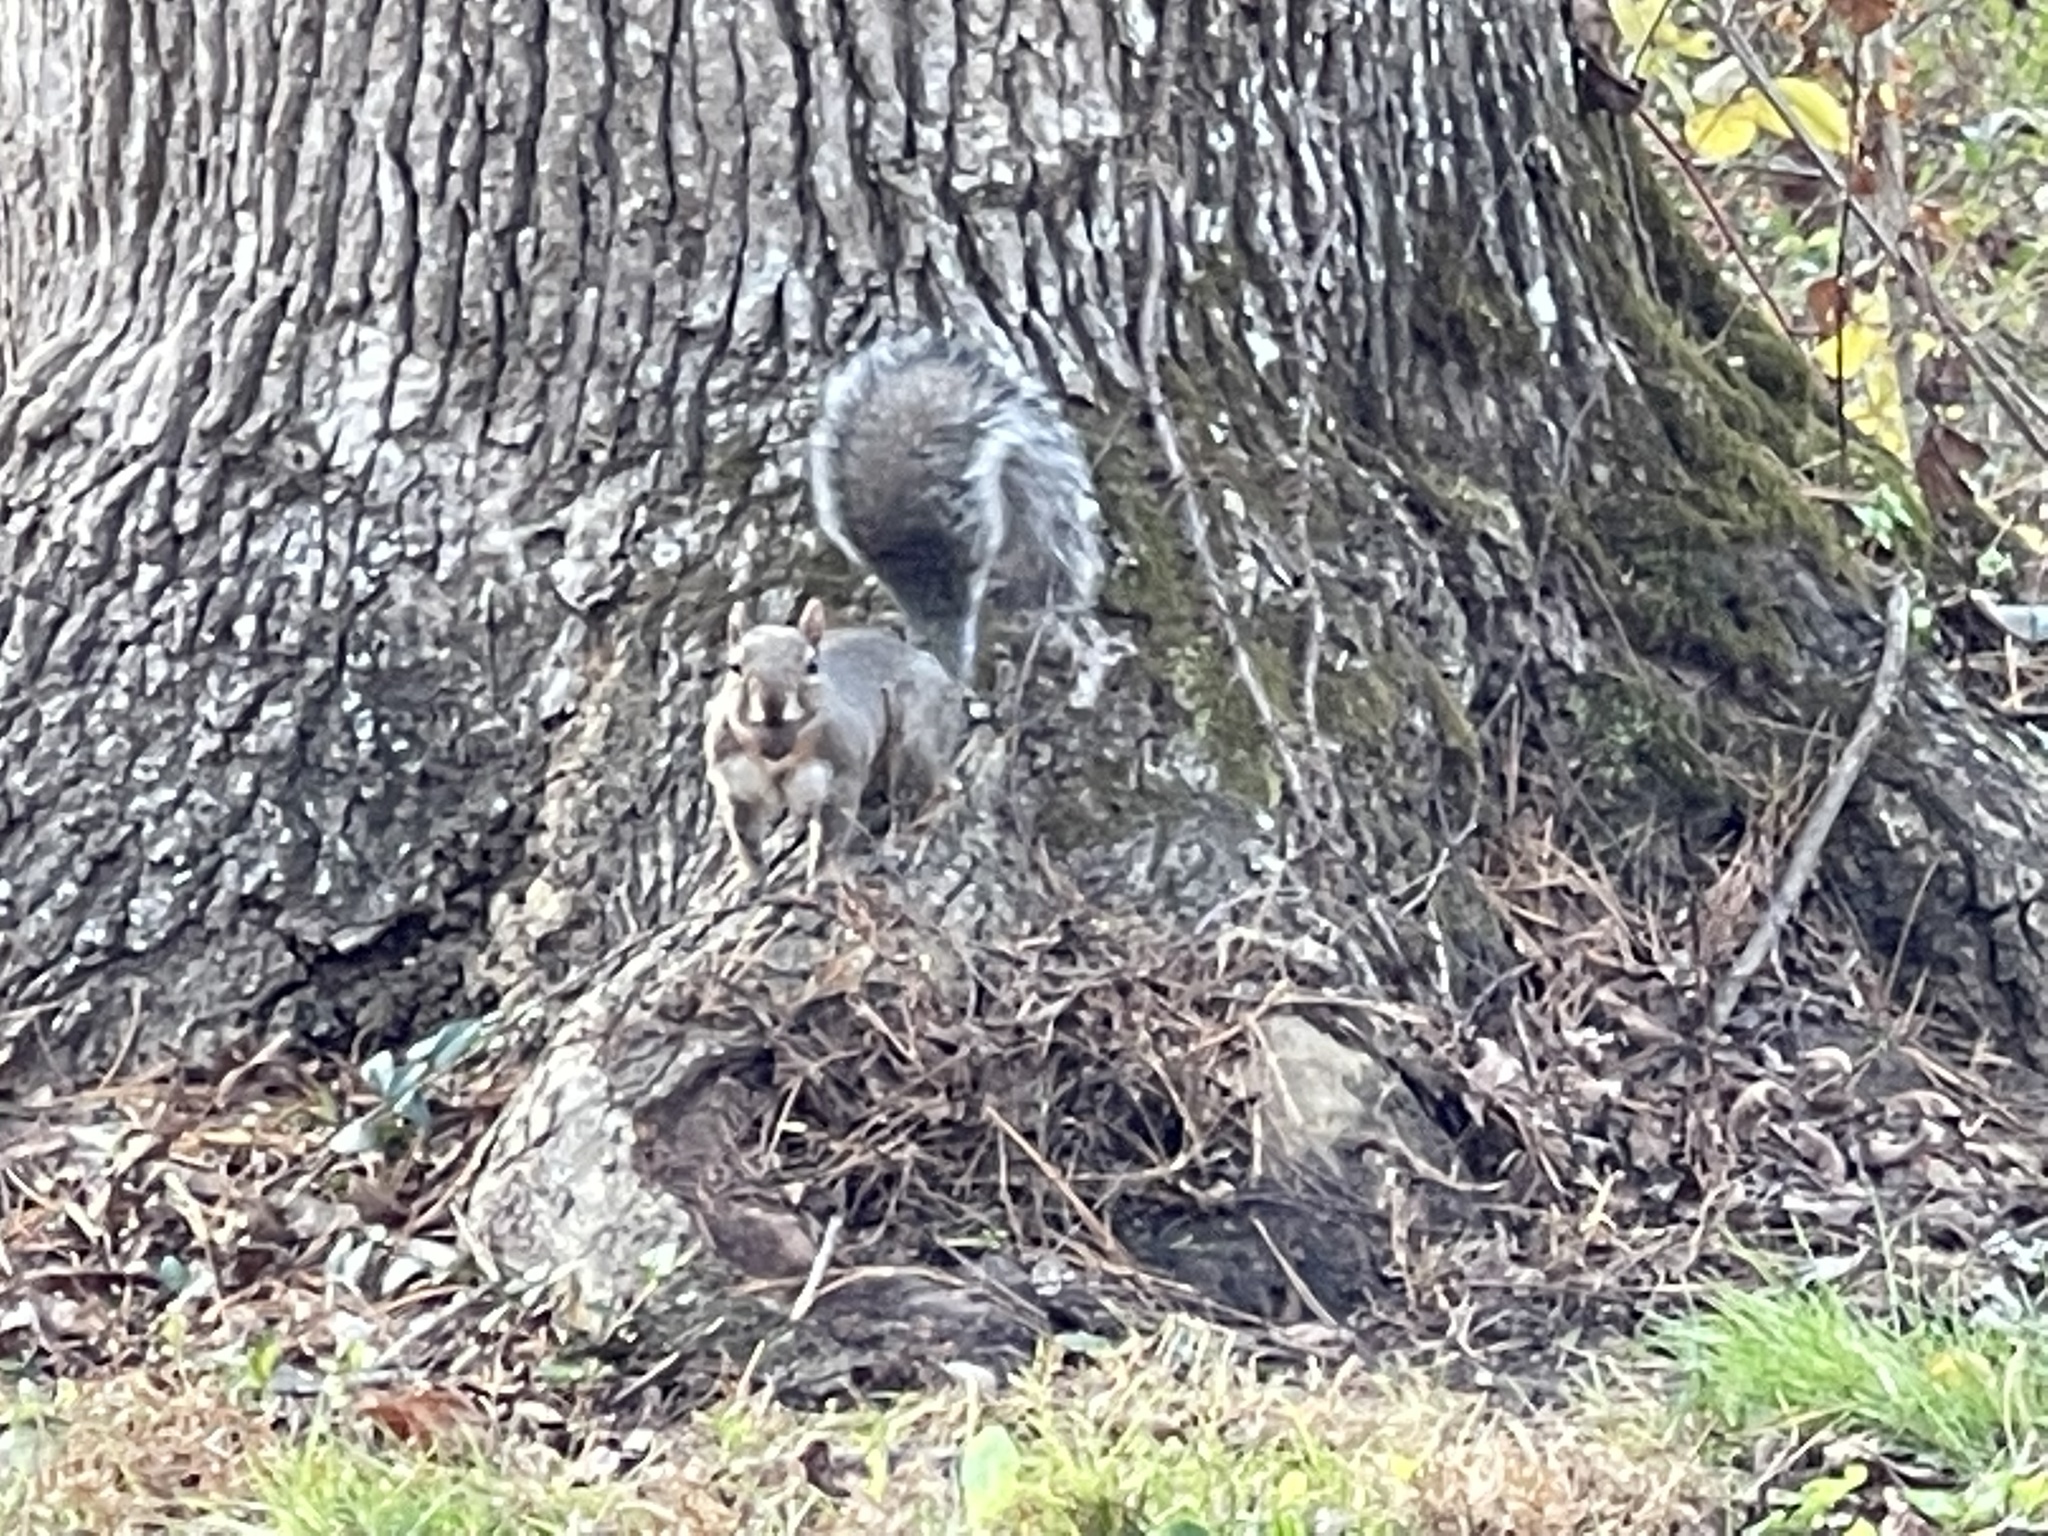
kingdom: Animalia
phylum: Chordata
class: Mammalia
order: Rodentia
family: Sciuridae
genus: Sciurus
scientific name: Sciurus carolinensis
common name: Eastern gray squirrel
